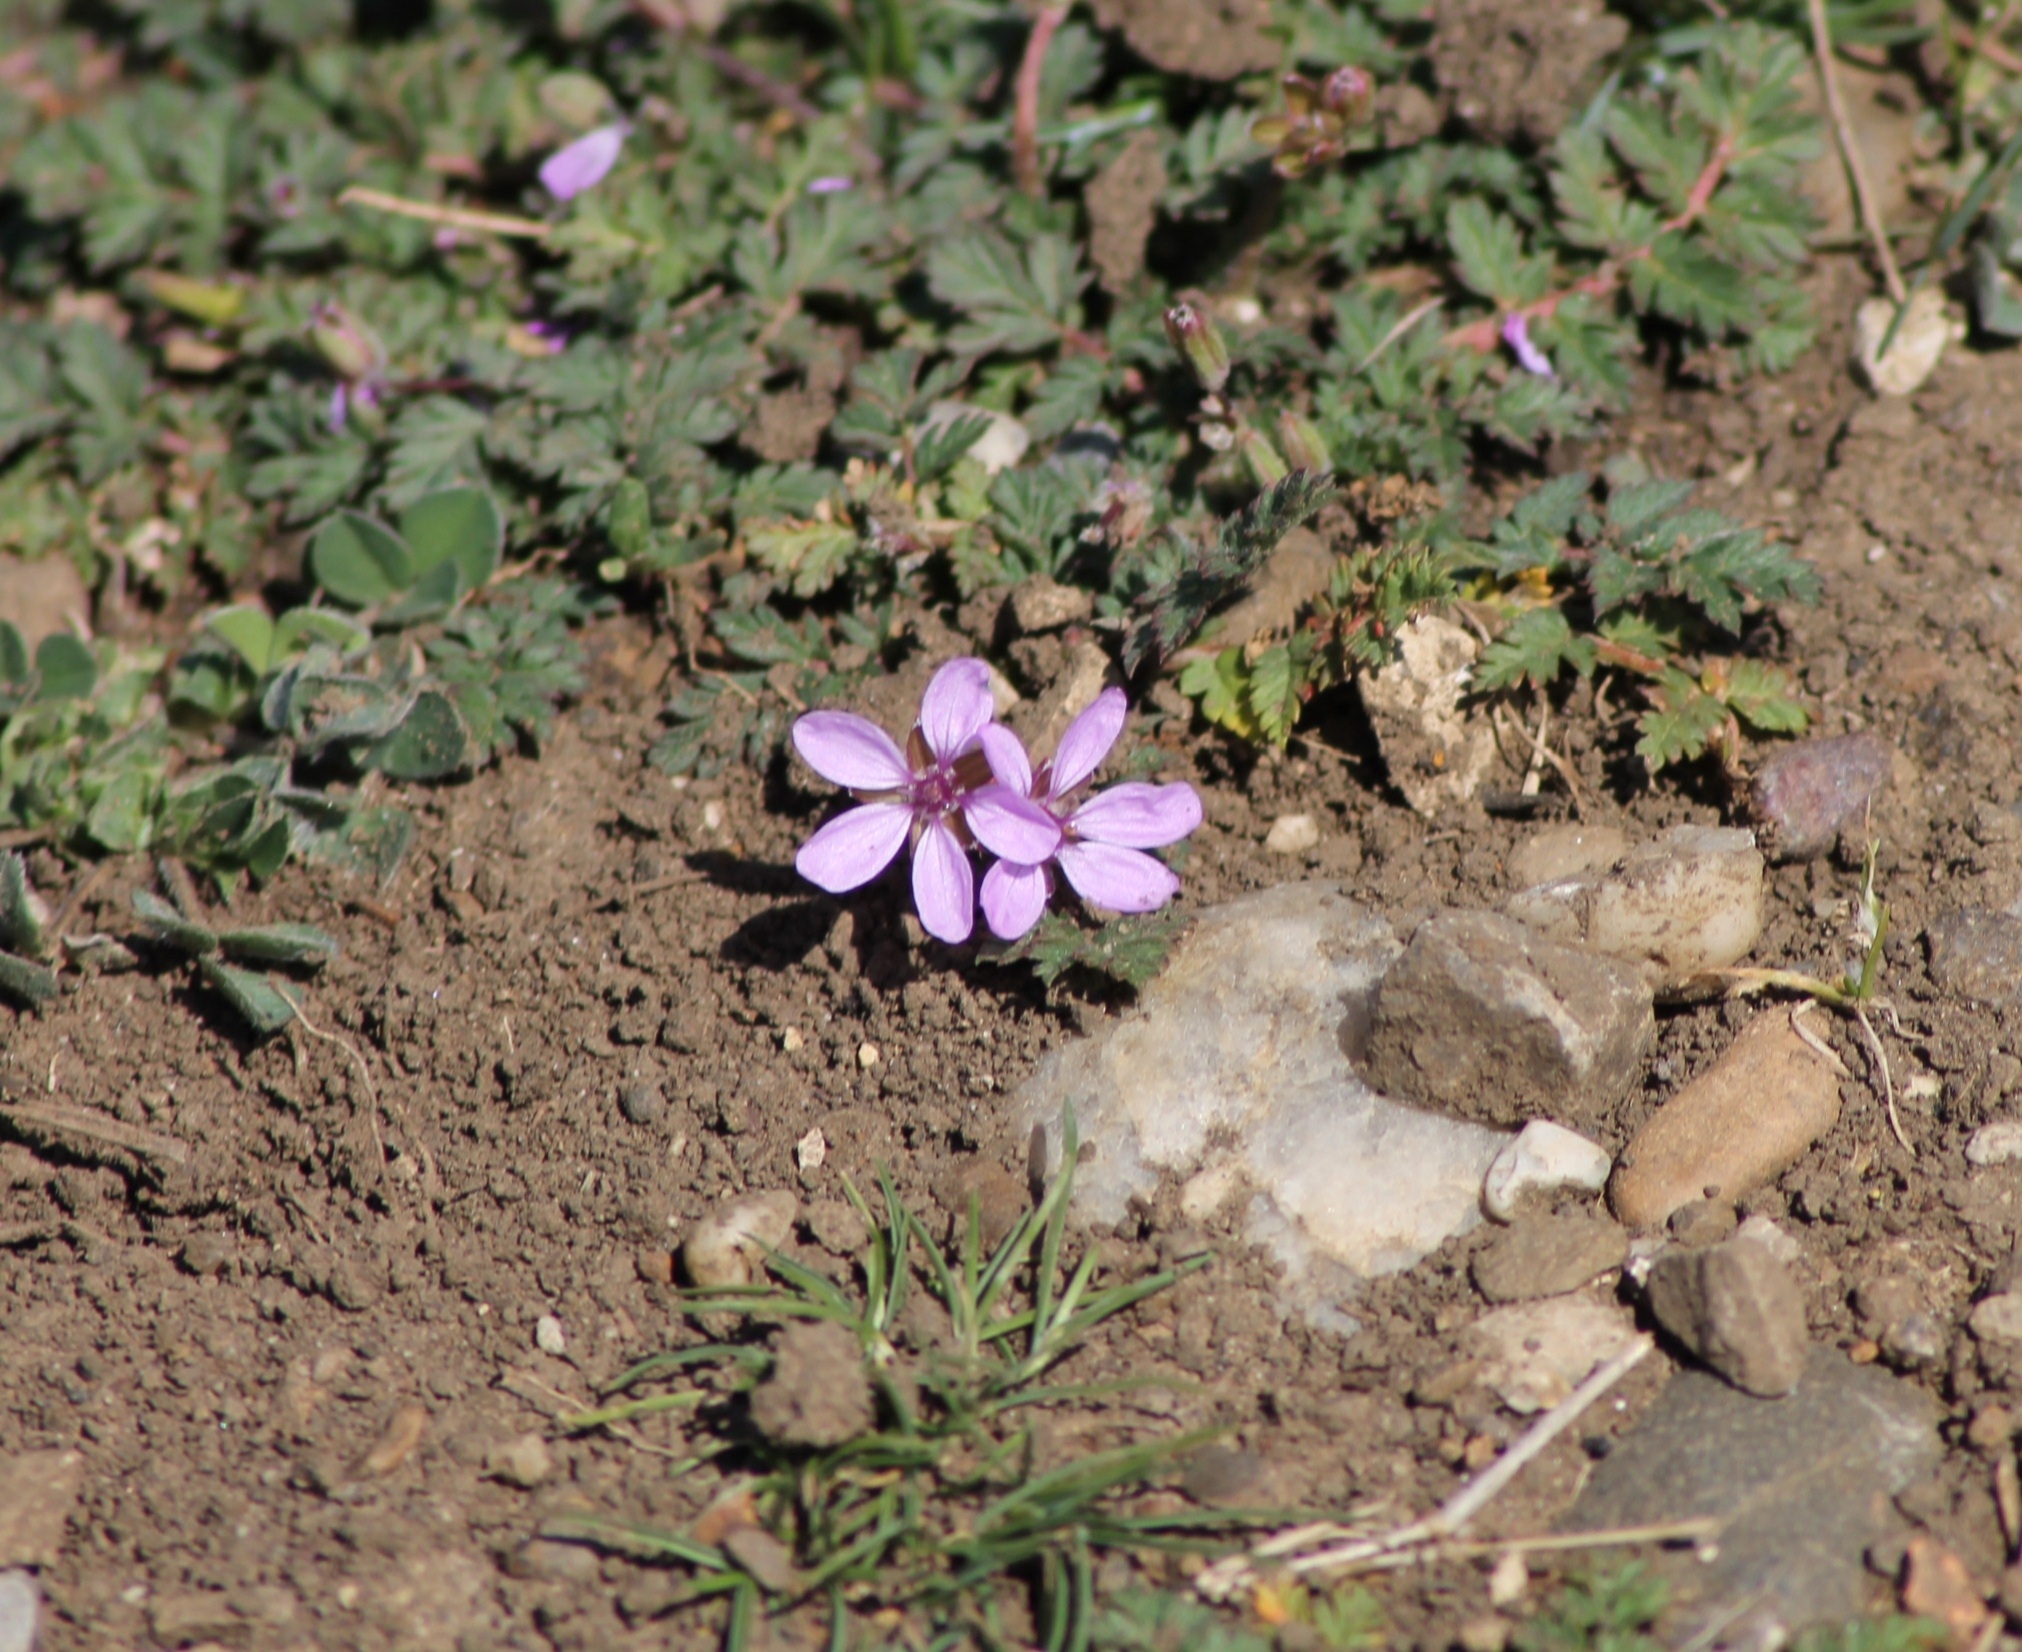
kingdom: Plantae
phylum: Tracheophyta
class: Magnoliopsida
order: Geraniales
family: Geraniaceae
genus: Erodium
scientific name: Erodium cicutarium
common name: Common stork's-bill
